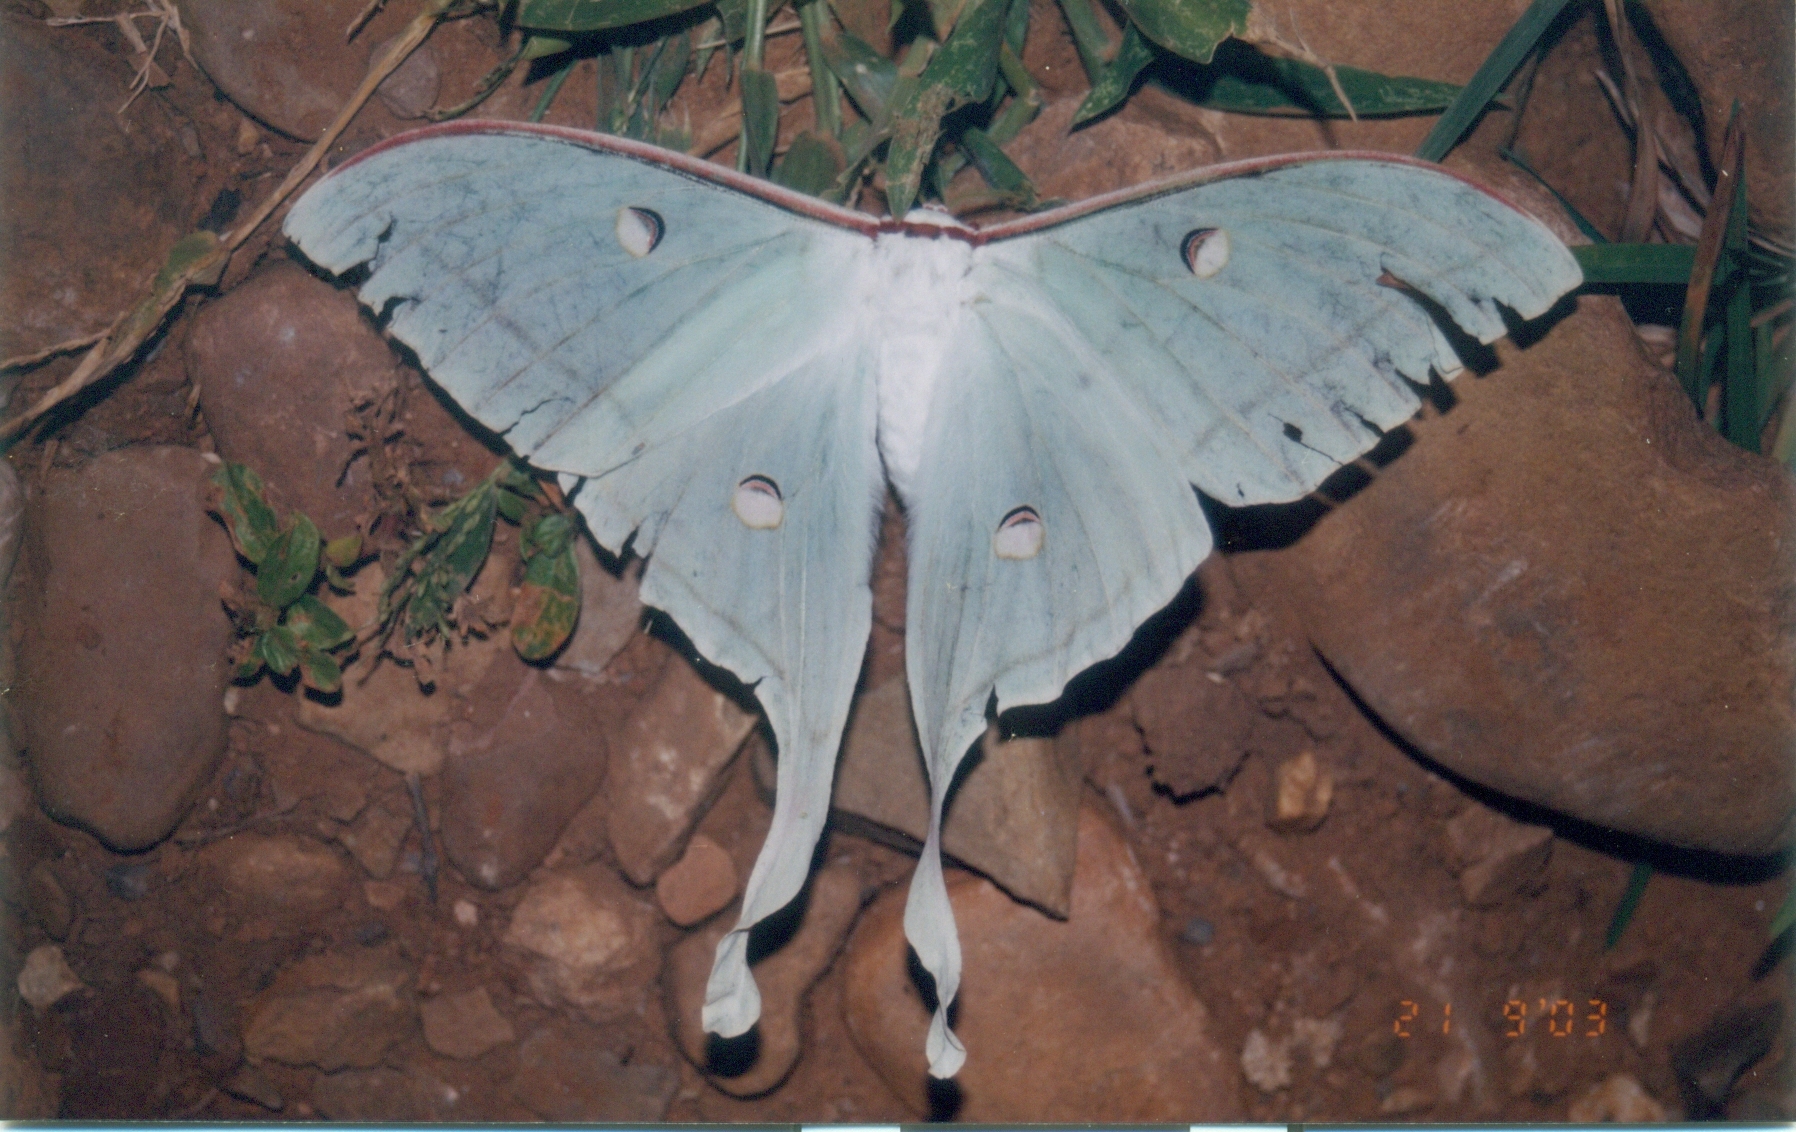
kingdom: Animalia
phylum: Arthropoda
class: Insecta
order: Lepidoptera
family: Saturniidae
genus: Actias
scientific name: Actias selene
